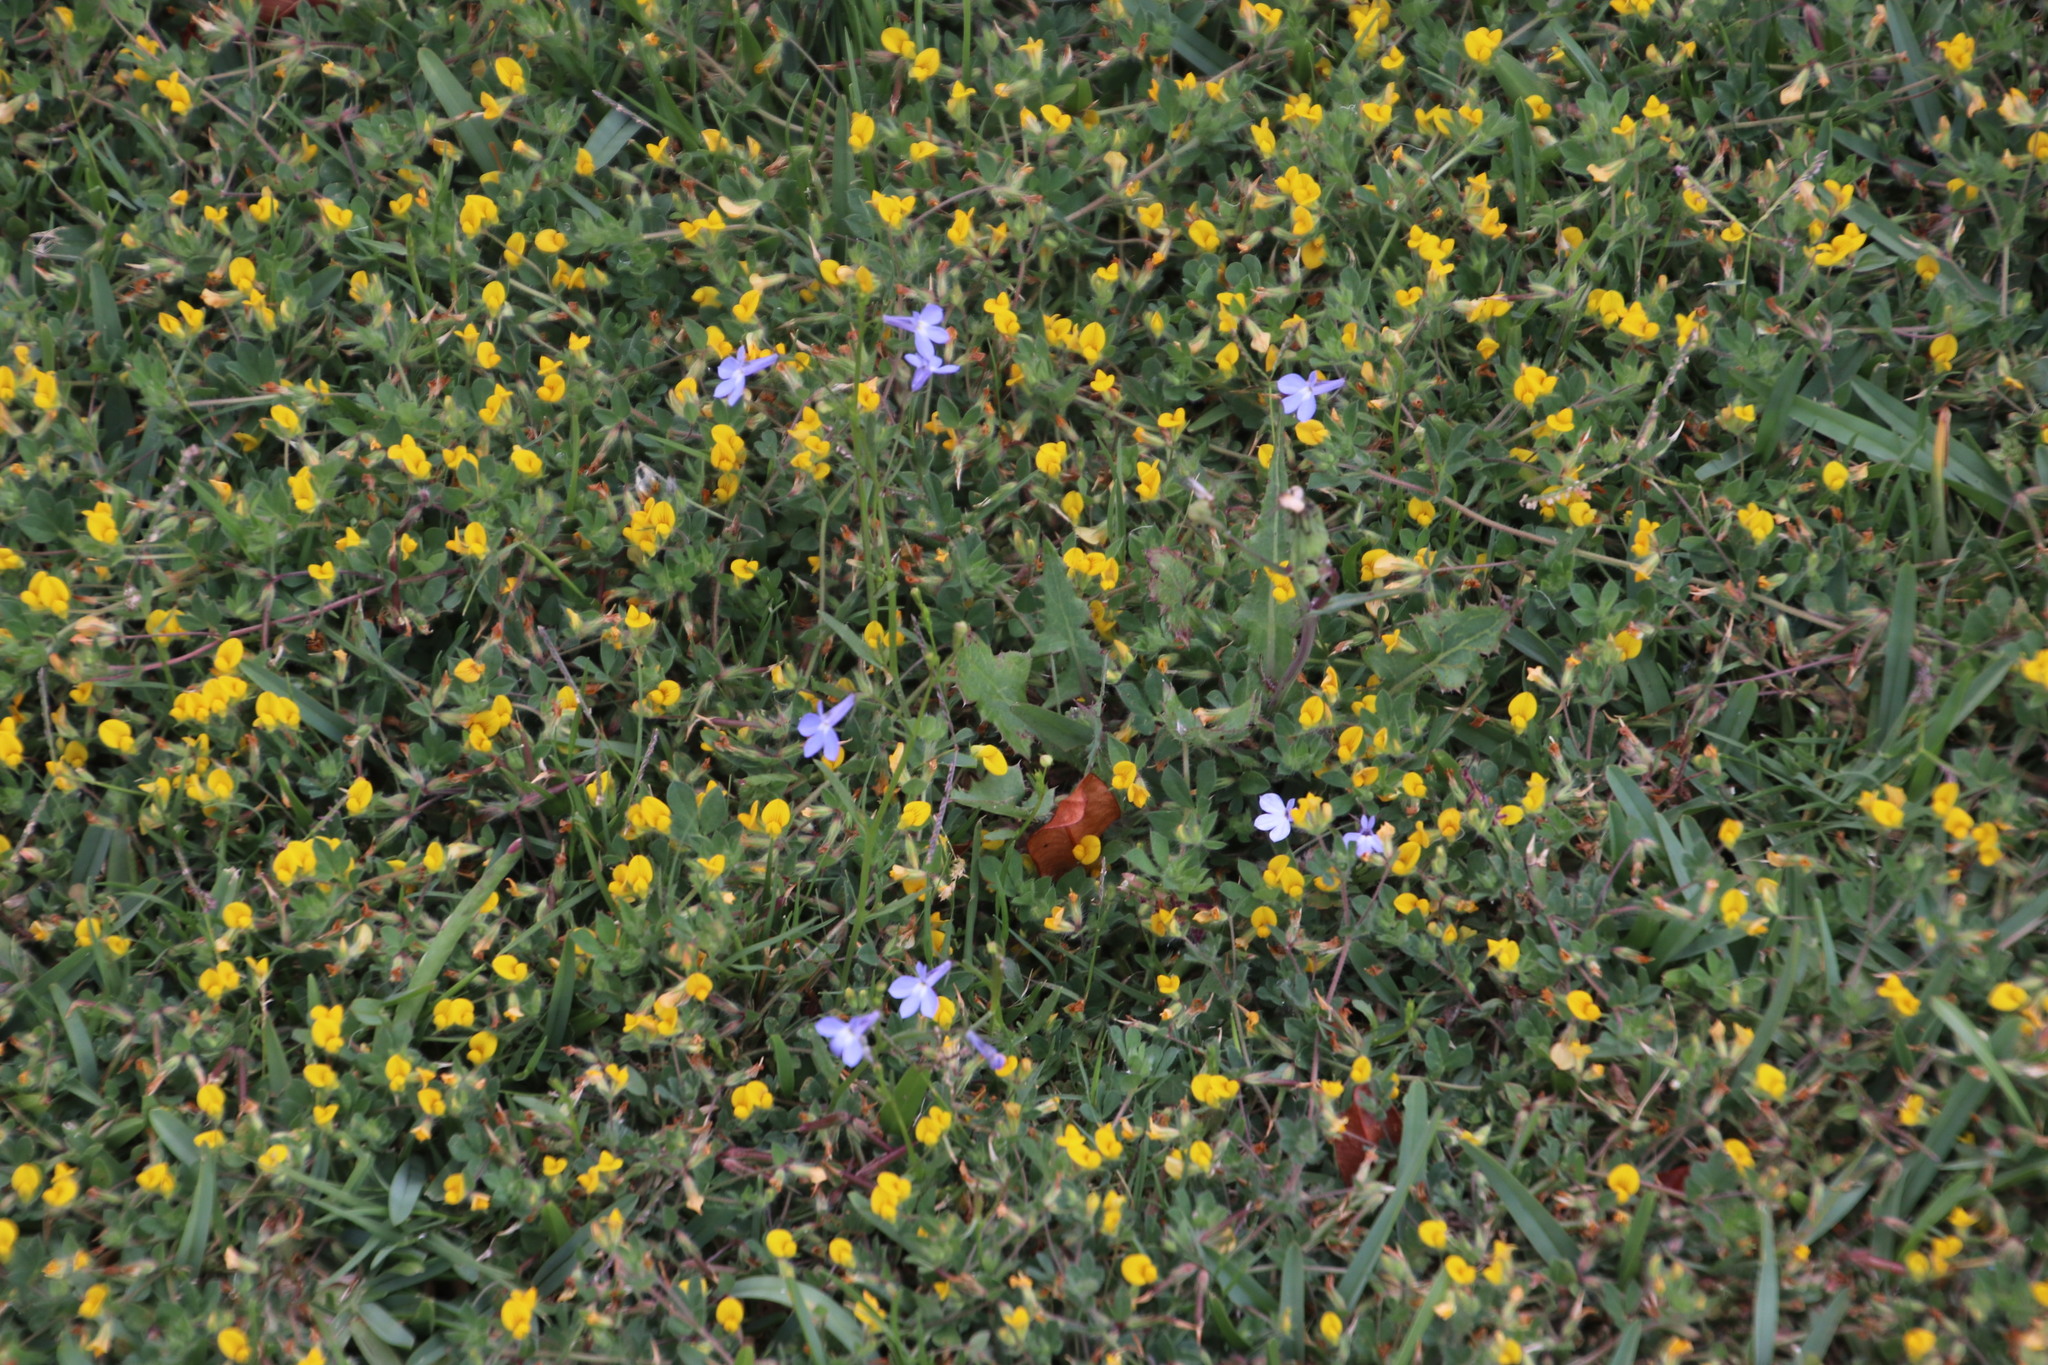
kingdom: Plantae
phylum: Tracheophyta
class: Magnoliopsida
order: Fabales
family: Fabaceae
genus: Lotus
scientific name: Lotus subbiflorus
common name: Hairy bird's-foot trefoil
